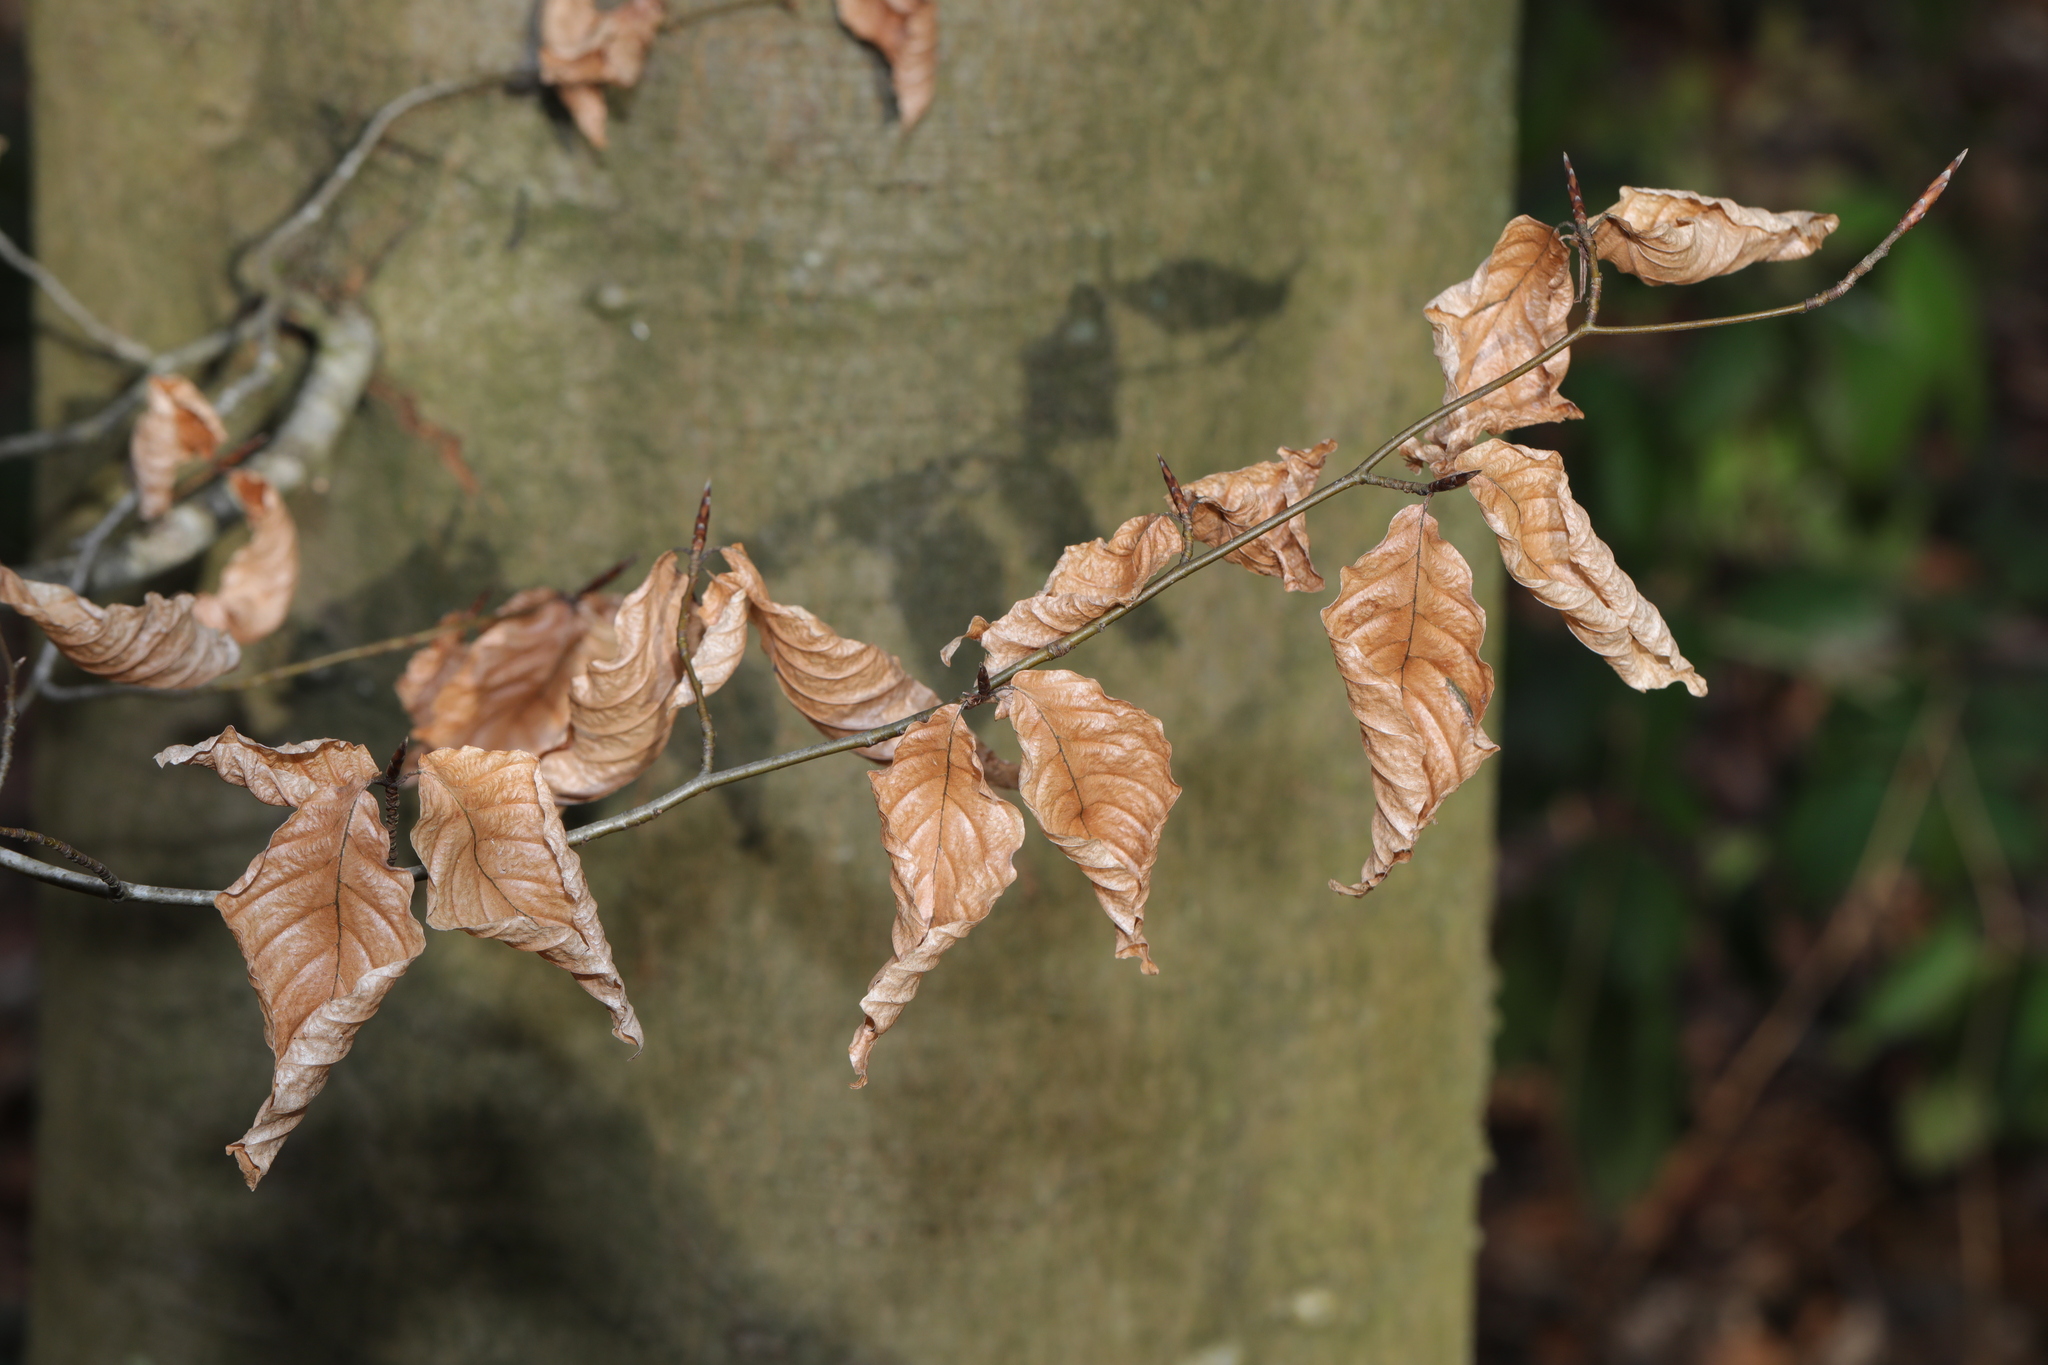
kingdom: Plantae
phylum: Tracheophyta
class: Magnoliopsida
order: Fagales
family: Fagaceae
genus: Fagus
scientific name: Fagus sylvatica
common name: Beech
